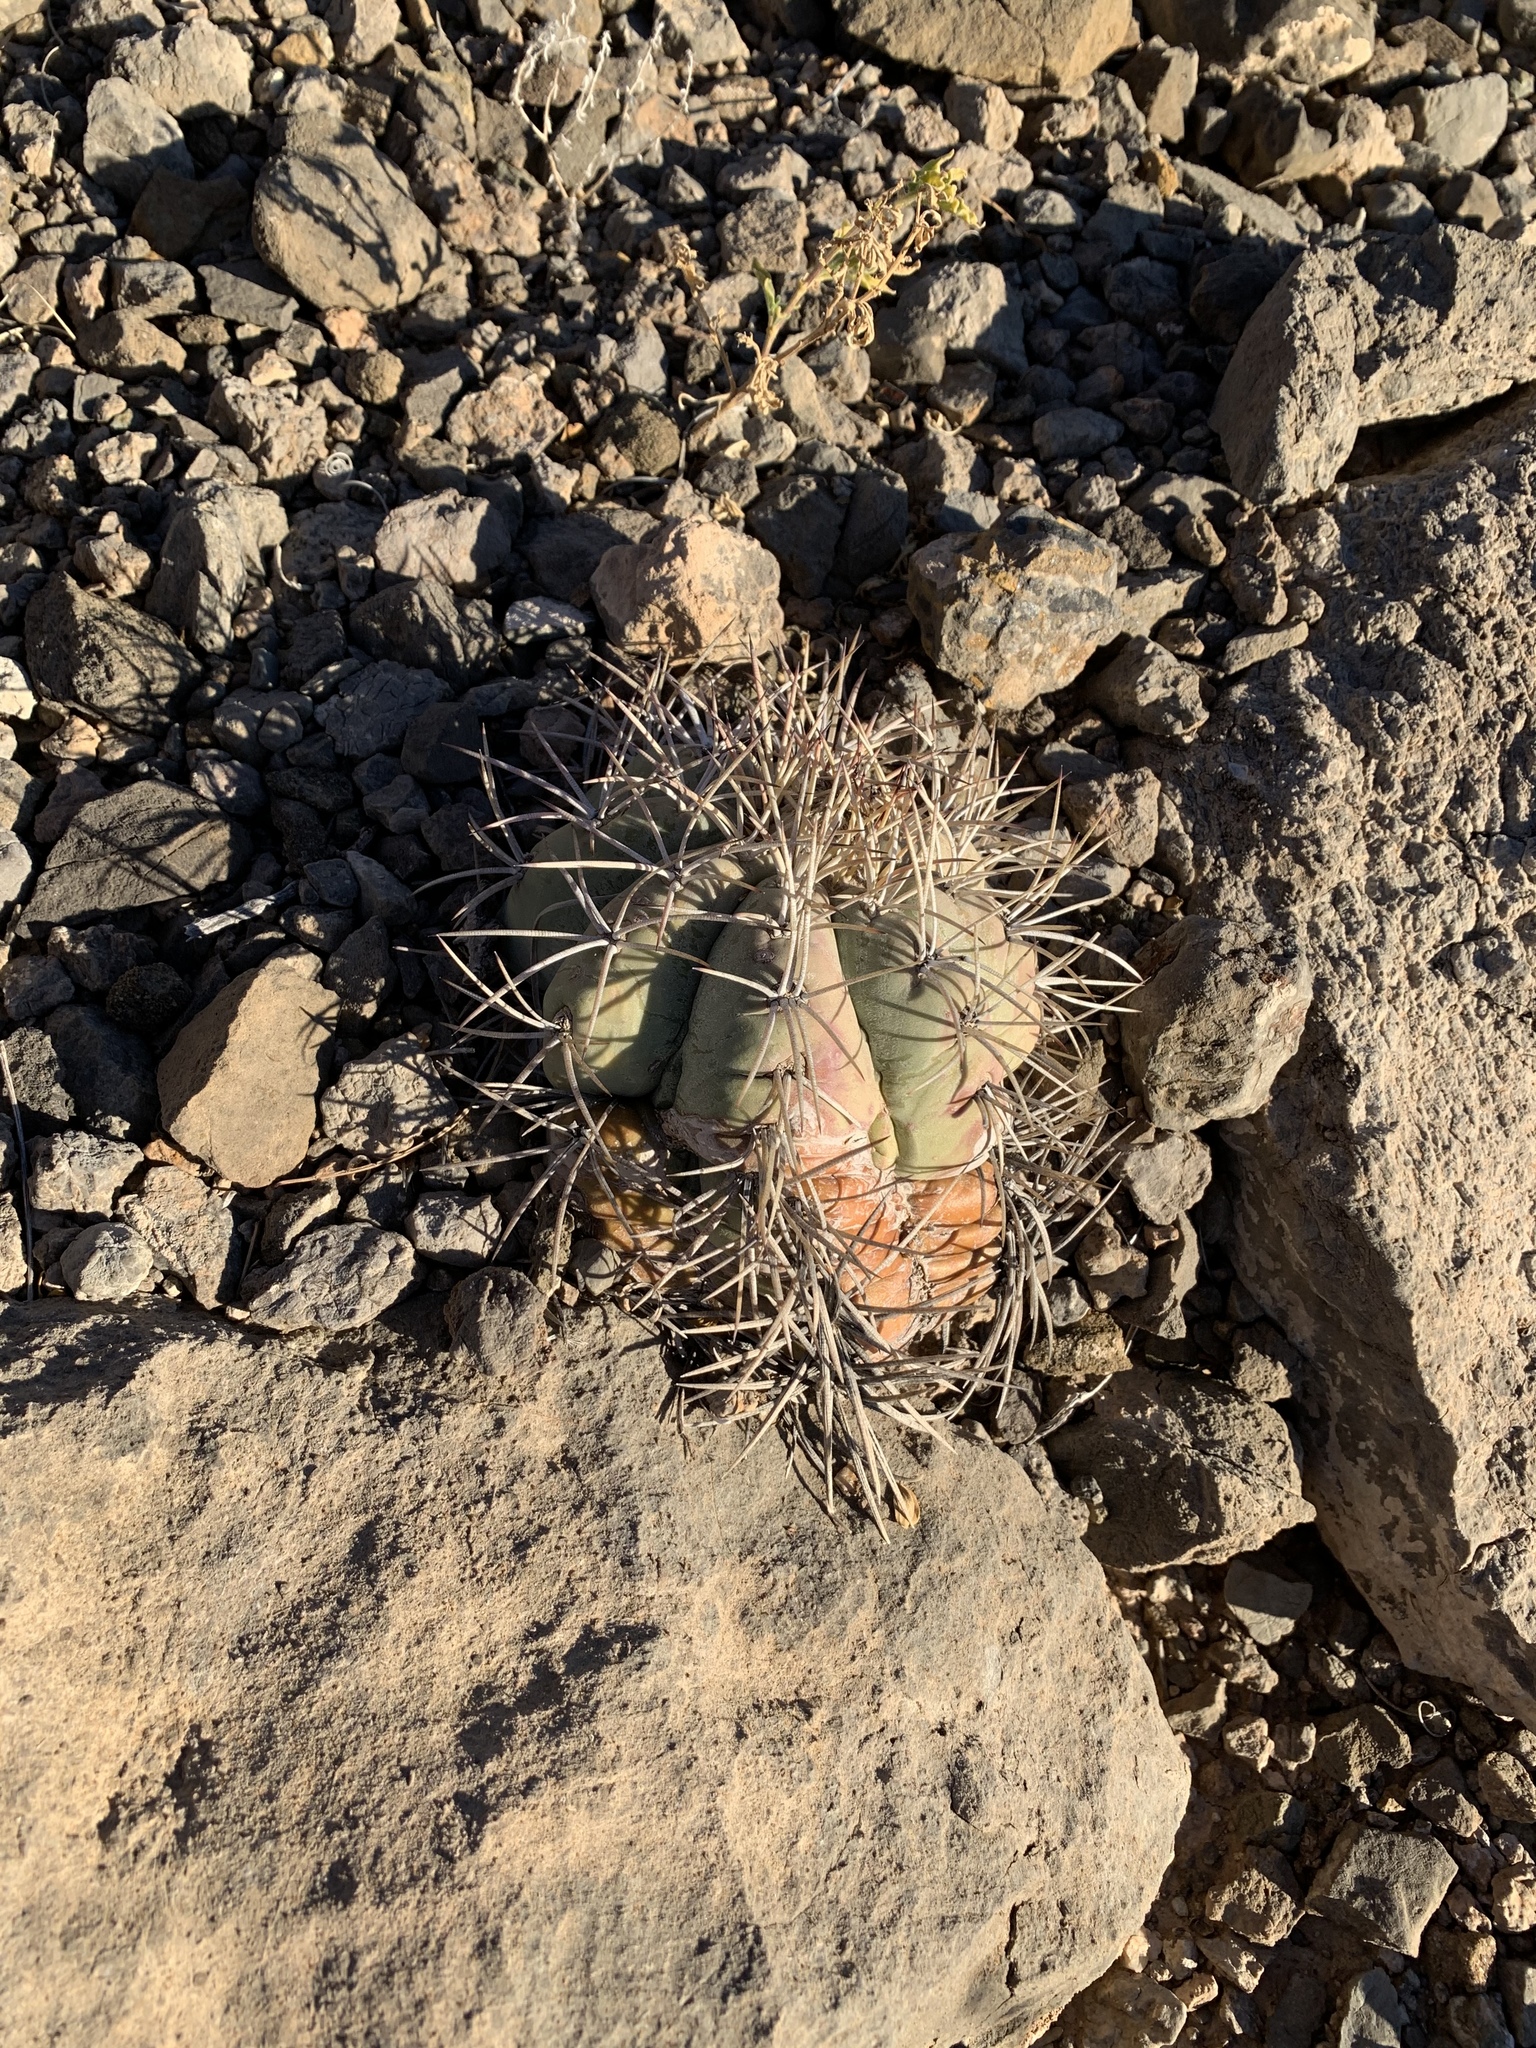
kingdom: Plantae
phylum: Tracheophyta
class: Magnoliopsida
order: Caryophyllales
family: Cactaceae
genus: Echinocactus
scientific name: Echinocactus horizonthalonius
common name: Devilshead
